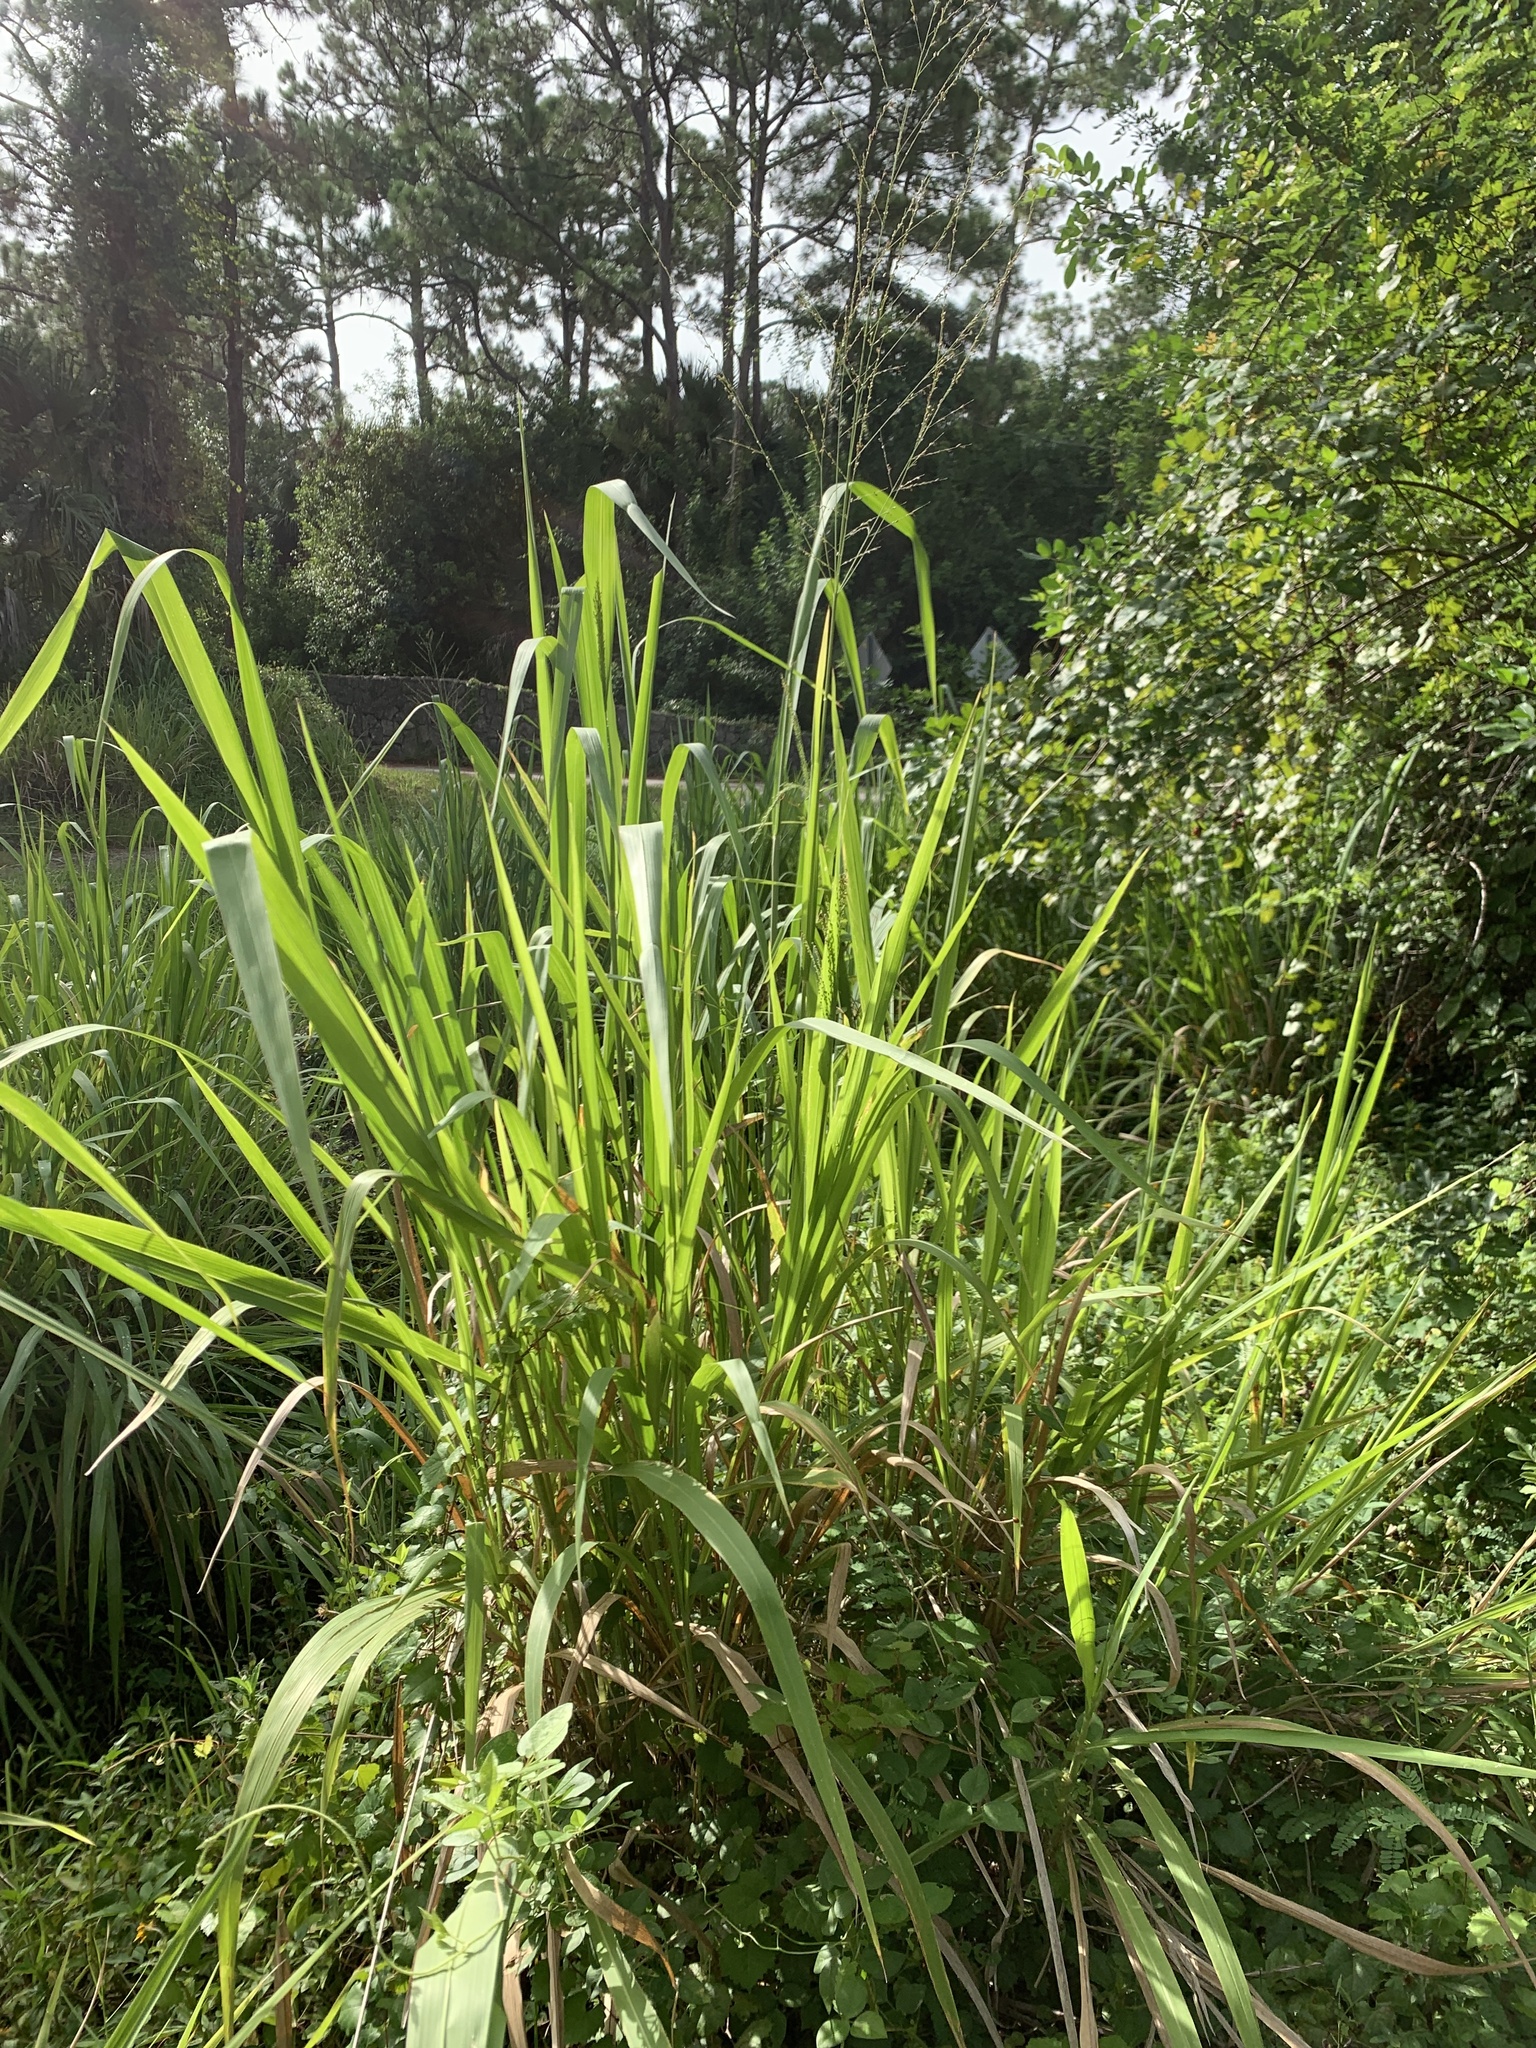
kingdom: Plantae
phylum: Tracheophyta
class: Liliopsida
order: Poales
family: Poaceae
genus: Megathyrsus
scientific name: Megathyrsus maximus
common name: Guineagrass
